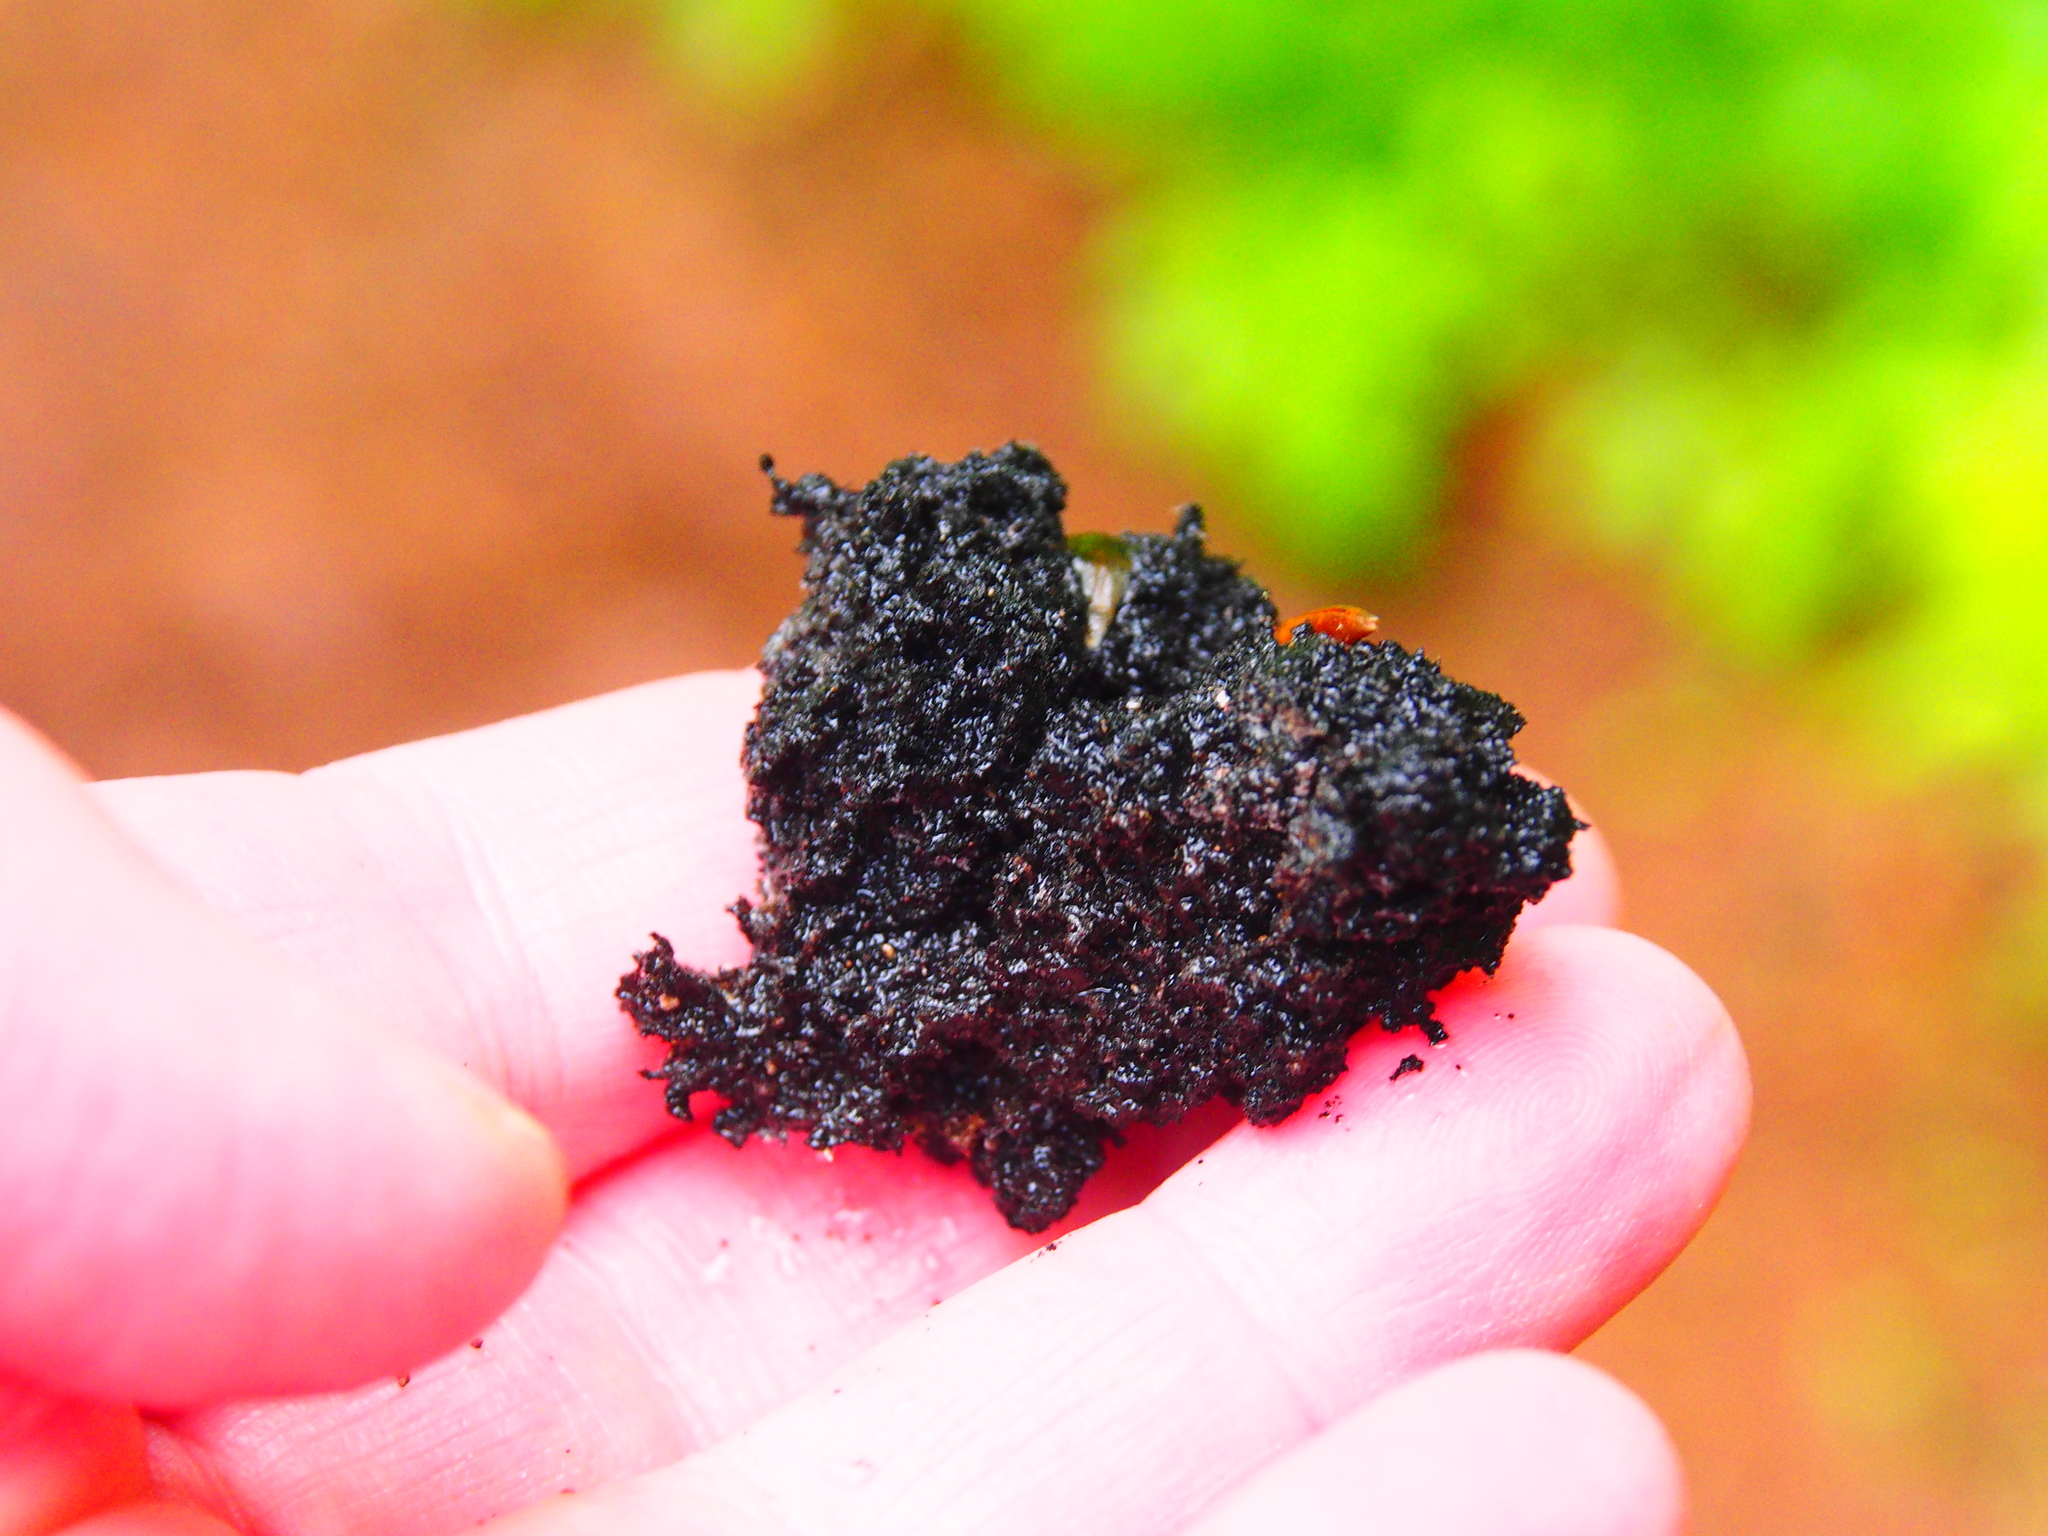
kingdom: Fungi
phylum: Ascomycota
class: Dothideomycetes
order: Capnodiales
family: Capnodiaceae
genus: Scorias
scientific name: Scorias spongiosa
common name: Black sooty mold
